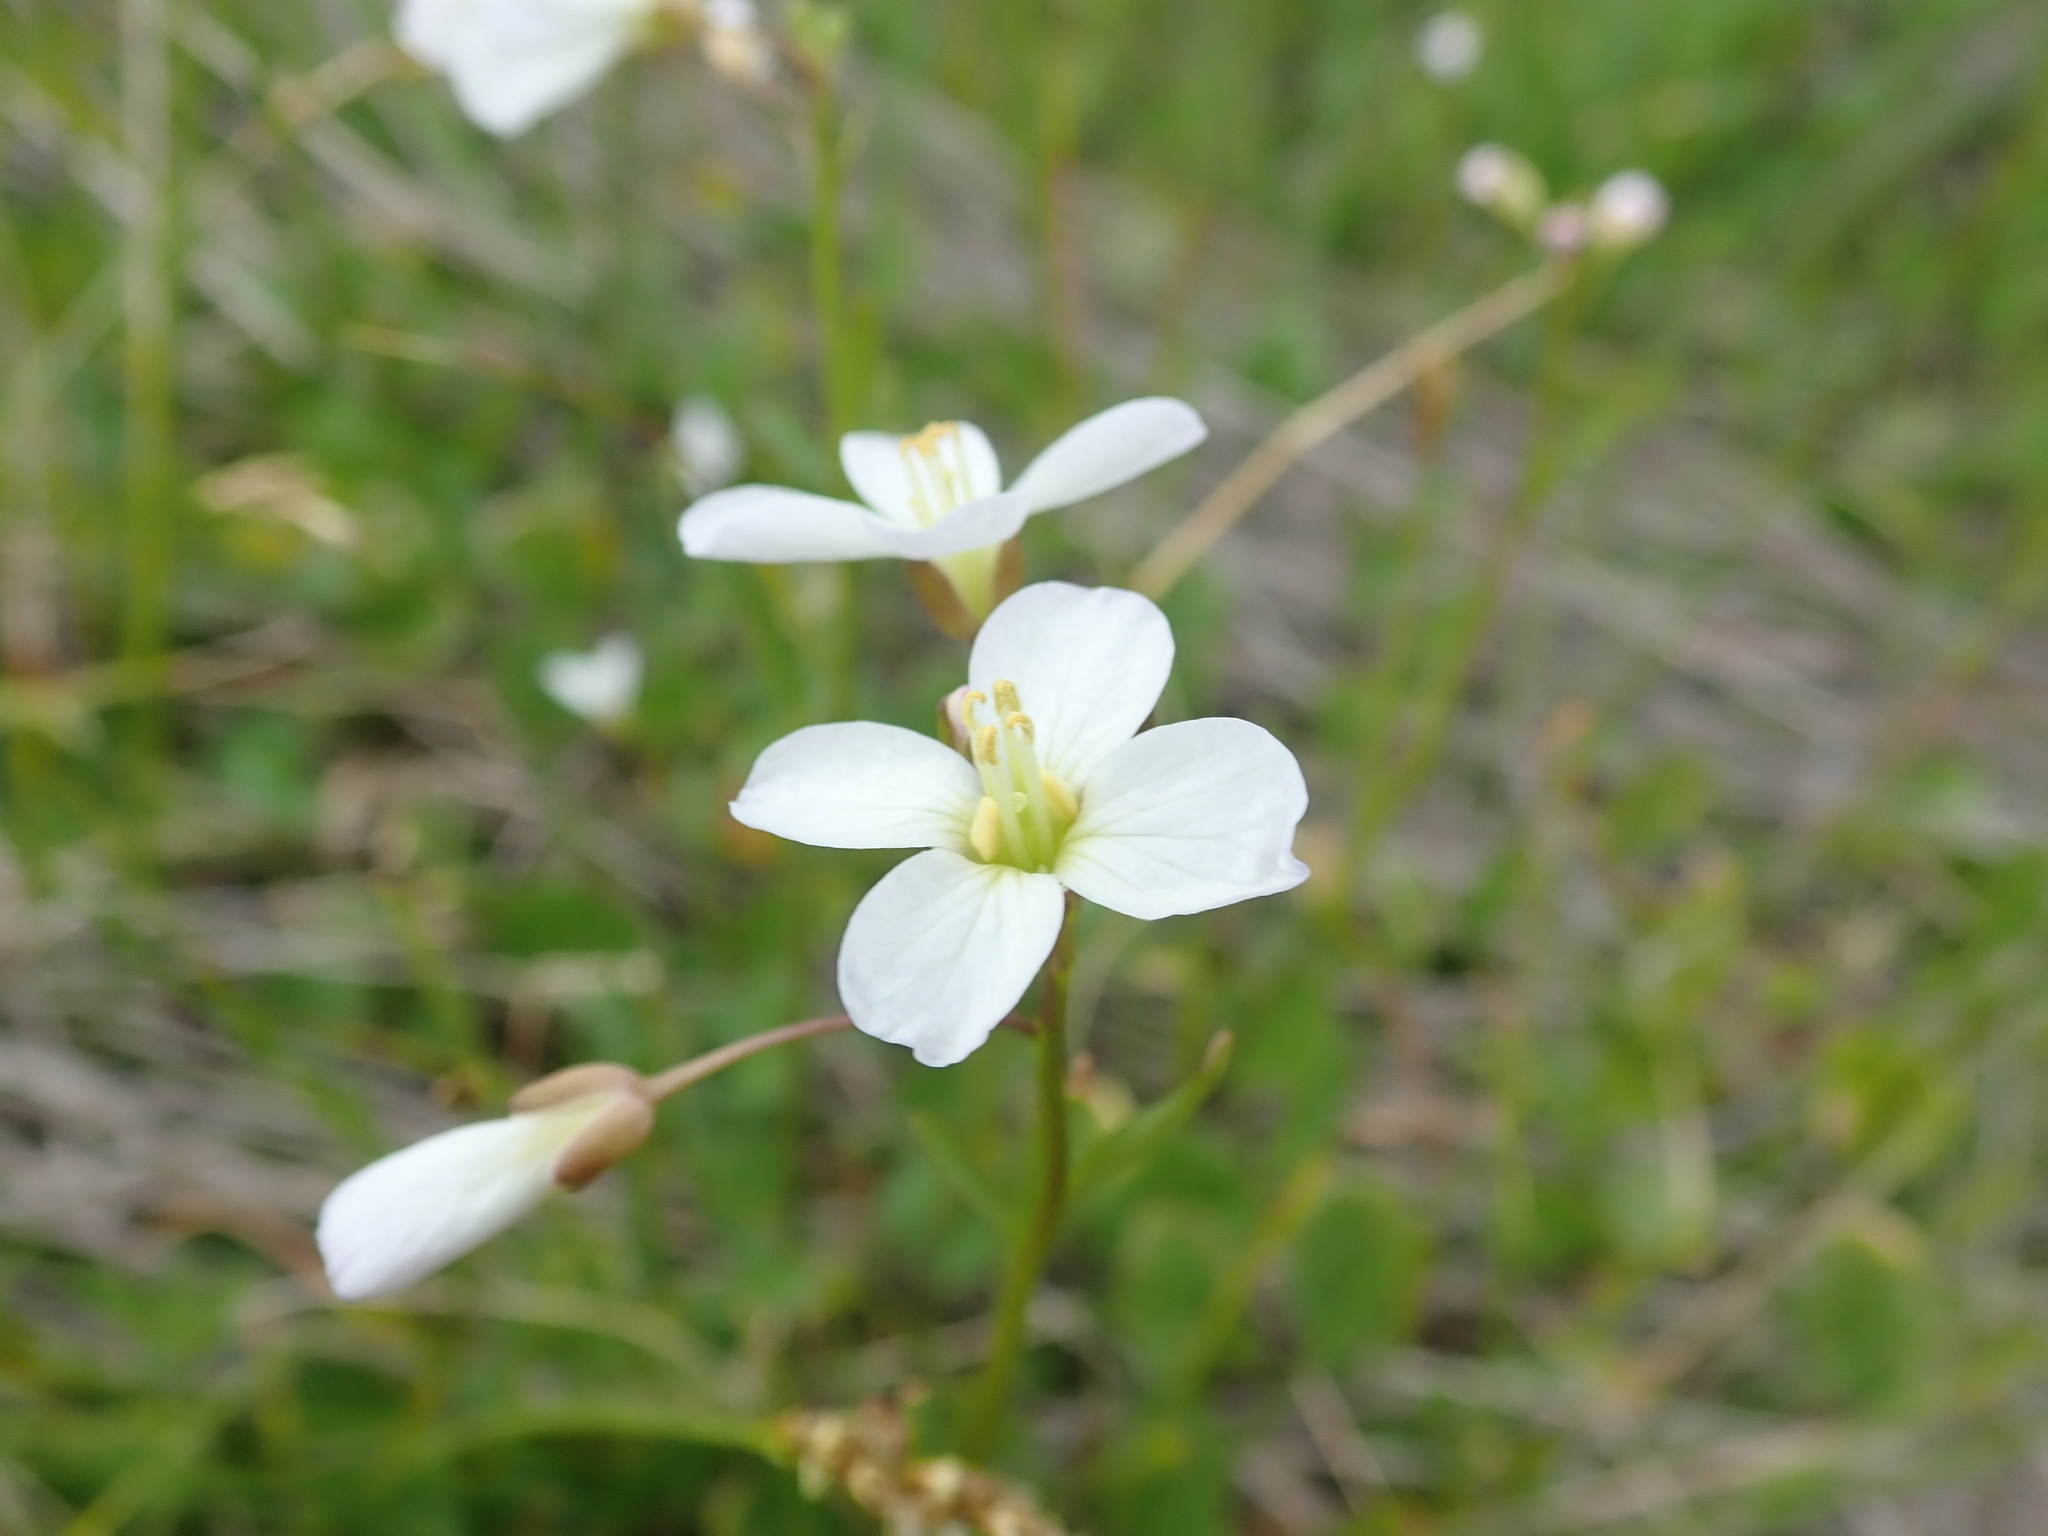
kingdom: Plantae
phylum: Tracheophyta
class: Magnoliopsida
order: Brassicales
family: Brassicaceae
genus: Cardamine
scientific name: Cardamine californica
